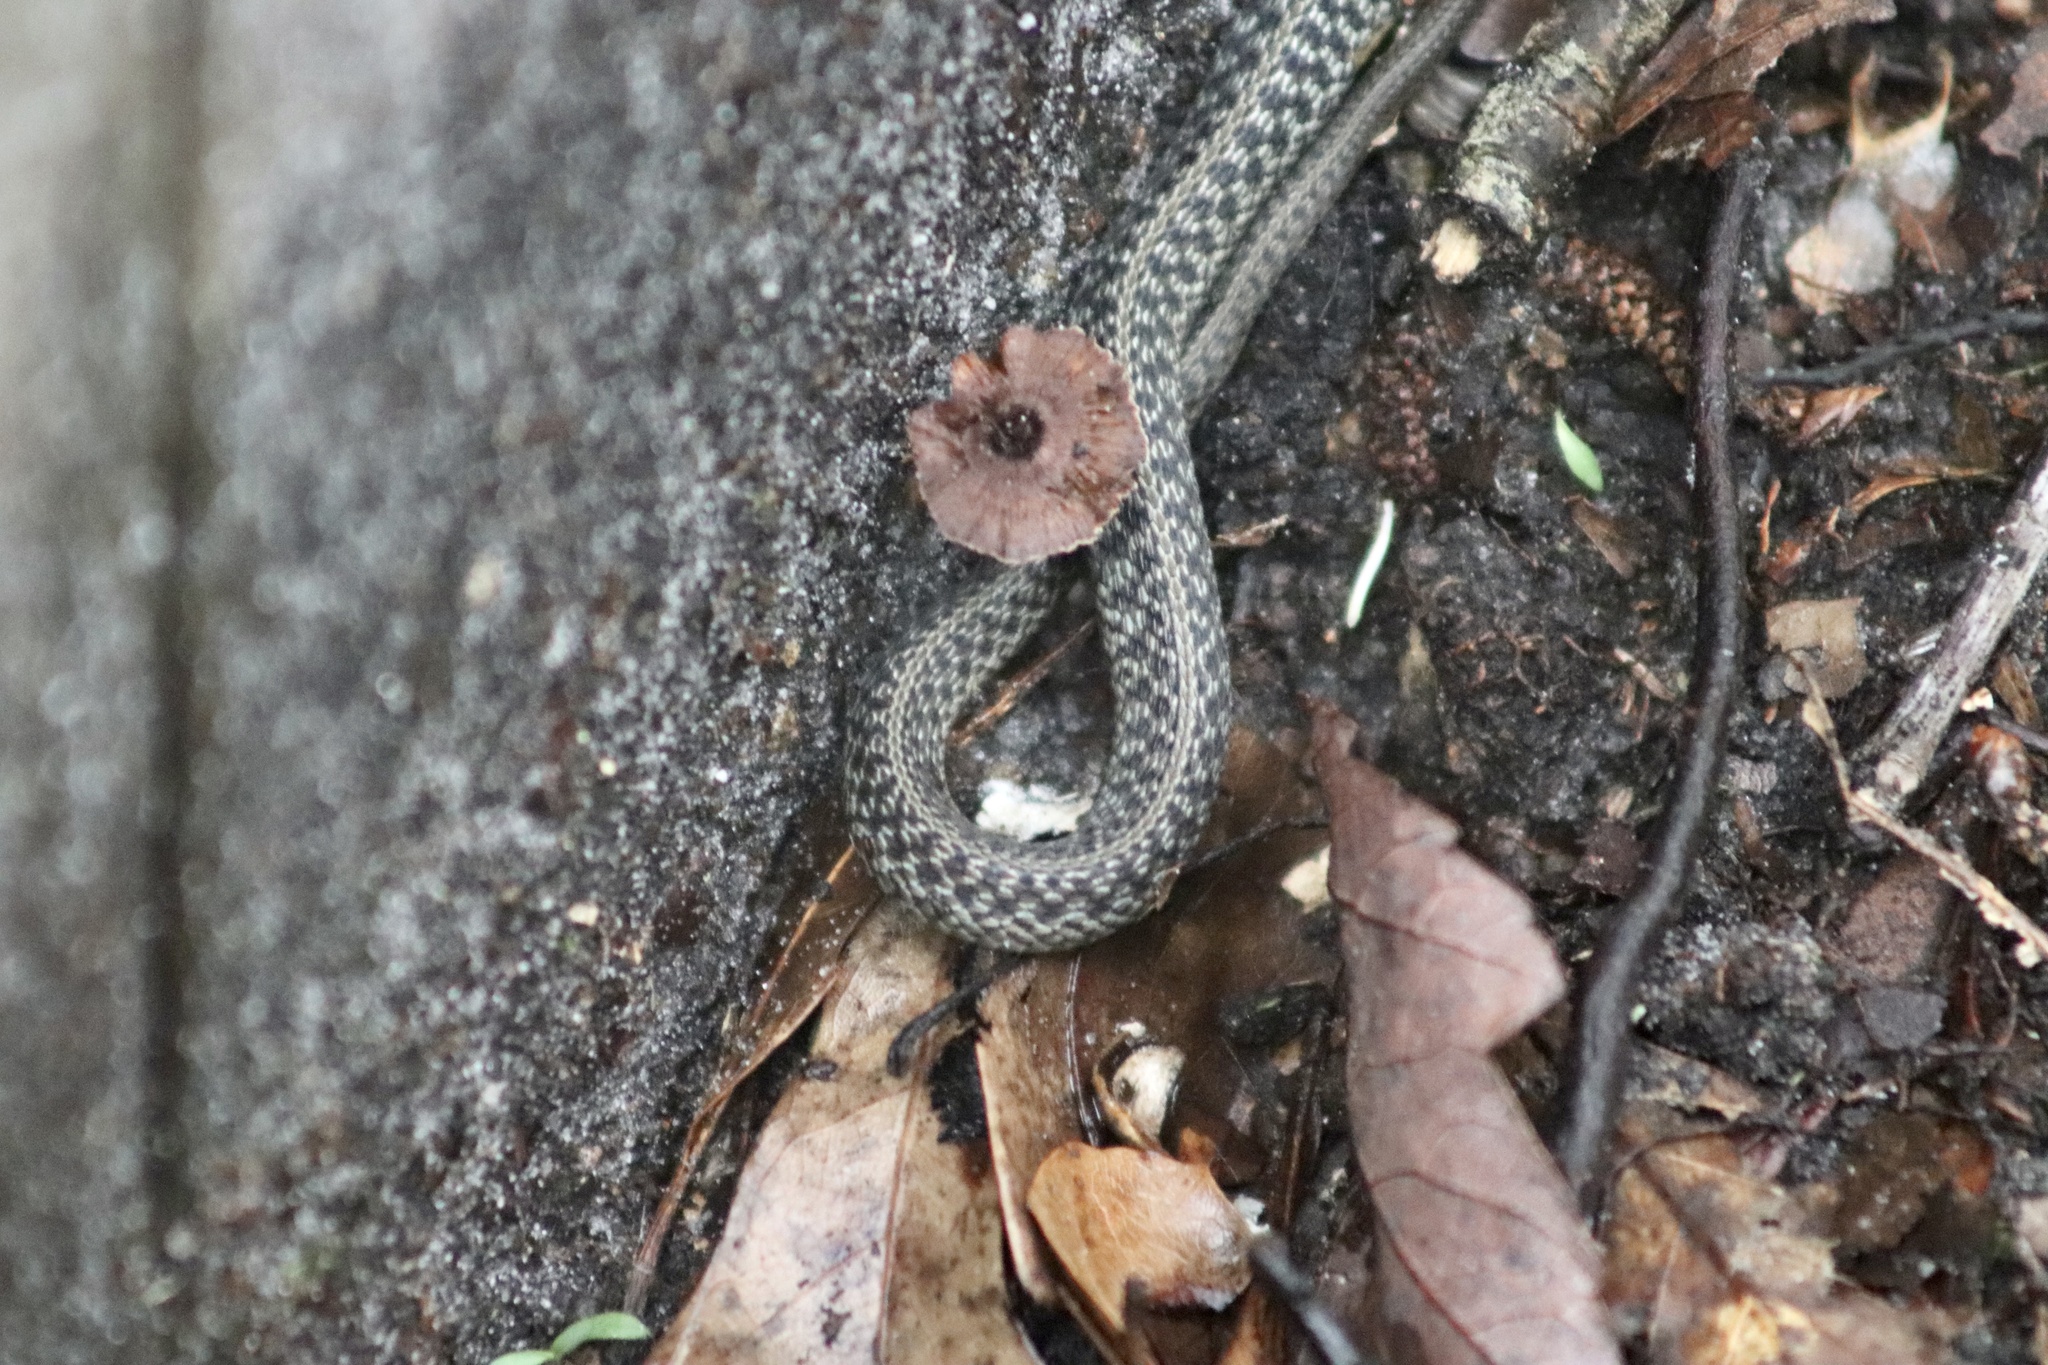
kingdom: Animalia
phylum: Chordata
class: Squamata
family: Colubridae
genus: Thamnophis
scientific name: Thamnophis sirtalis
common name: Common garter snake
